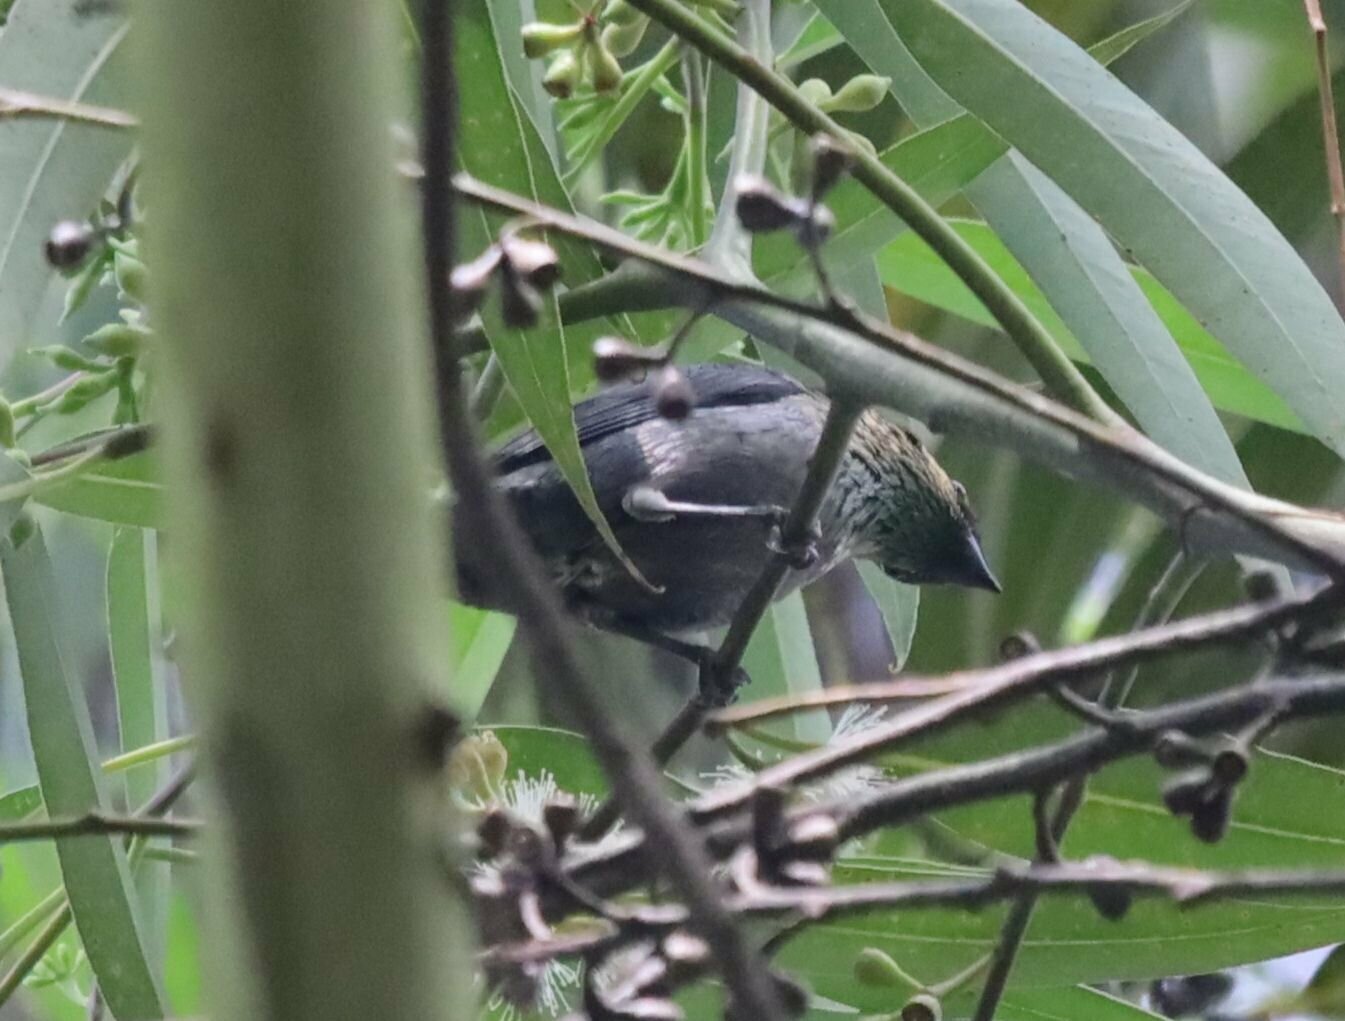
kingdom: Animalia
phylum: Chordata
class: Aves
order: Passeriformes
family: Thraupidae
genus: Stilpnia
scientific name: Stilpnia heinei
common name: Black-capped tanager
